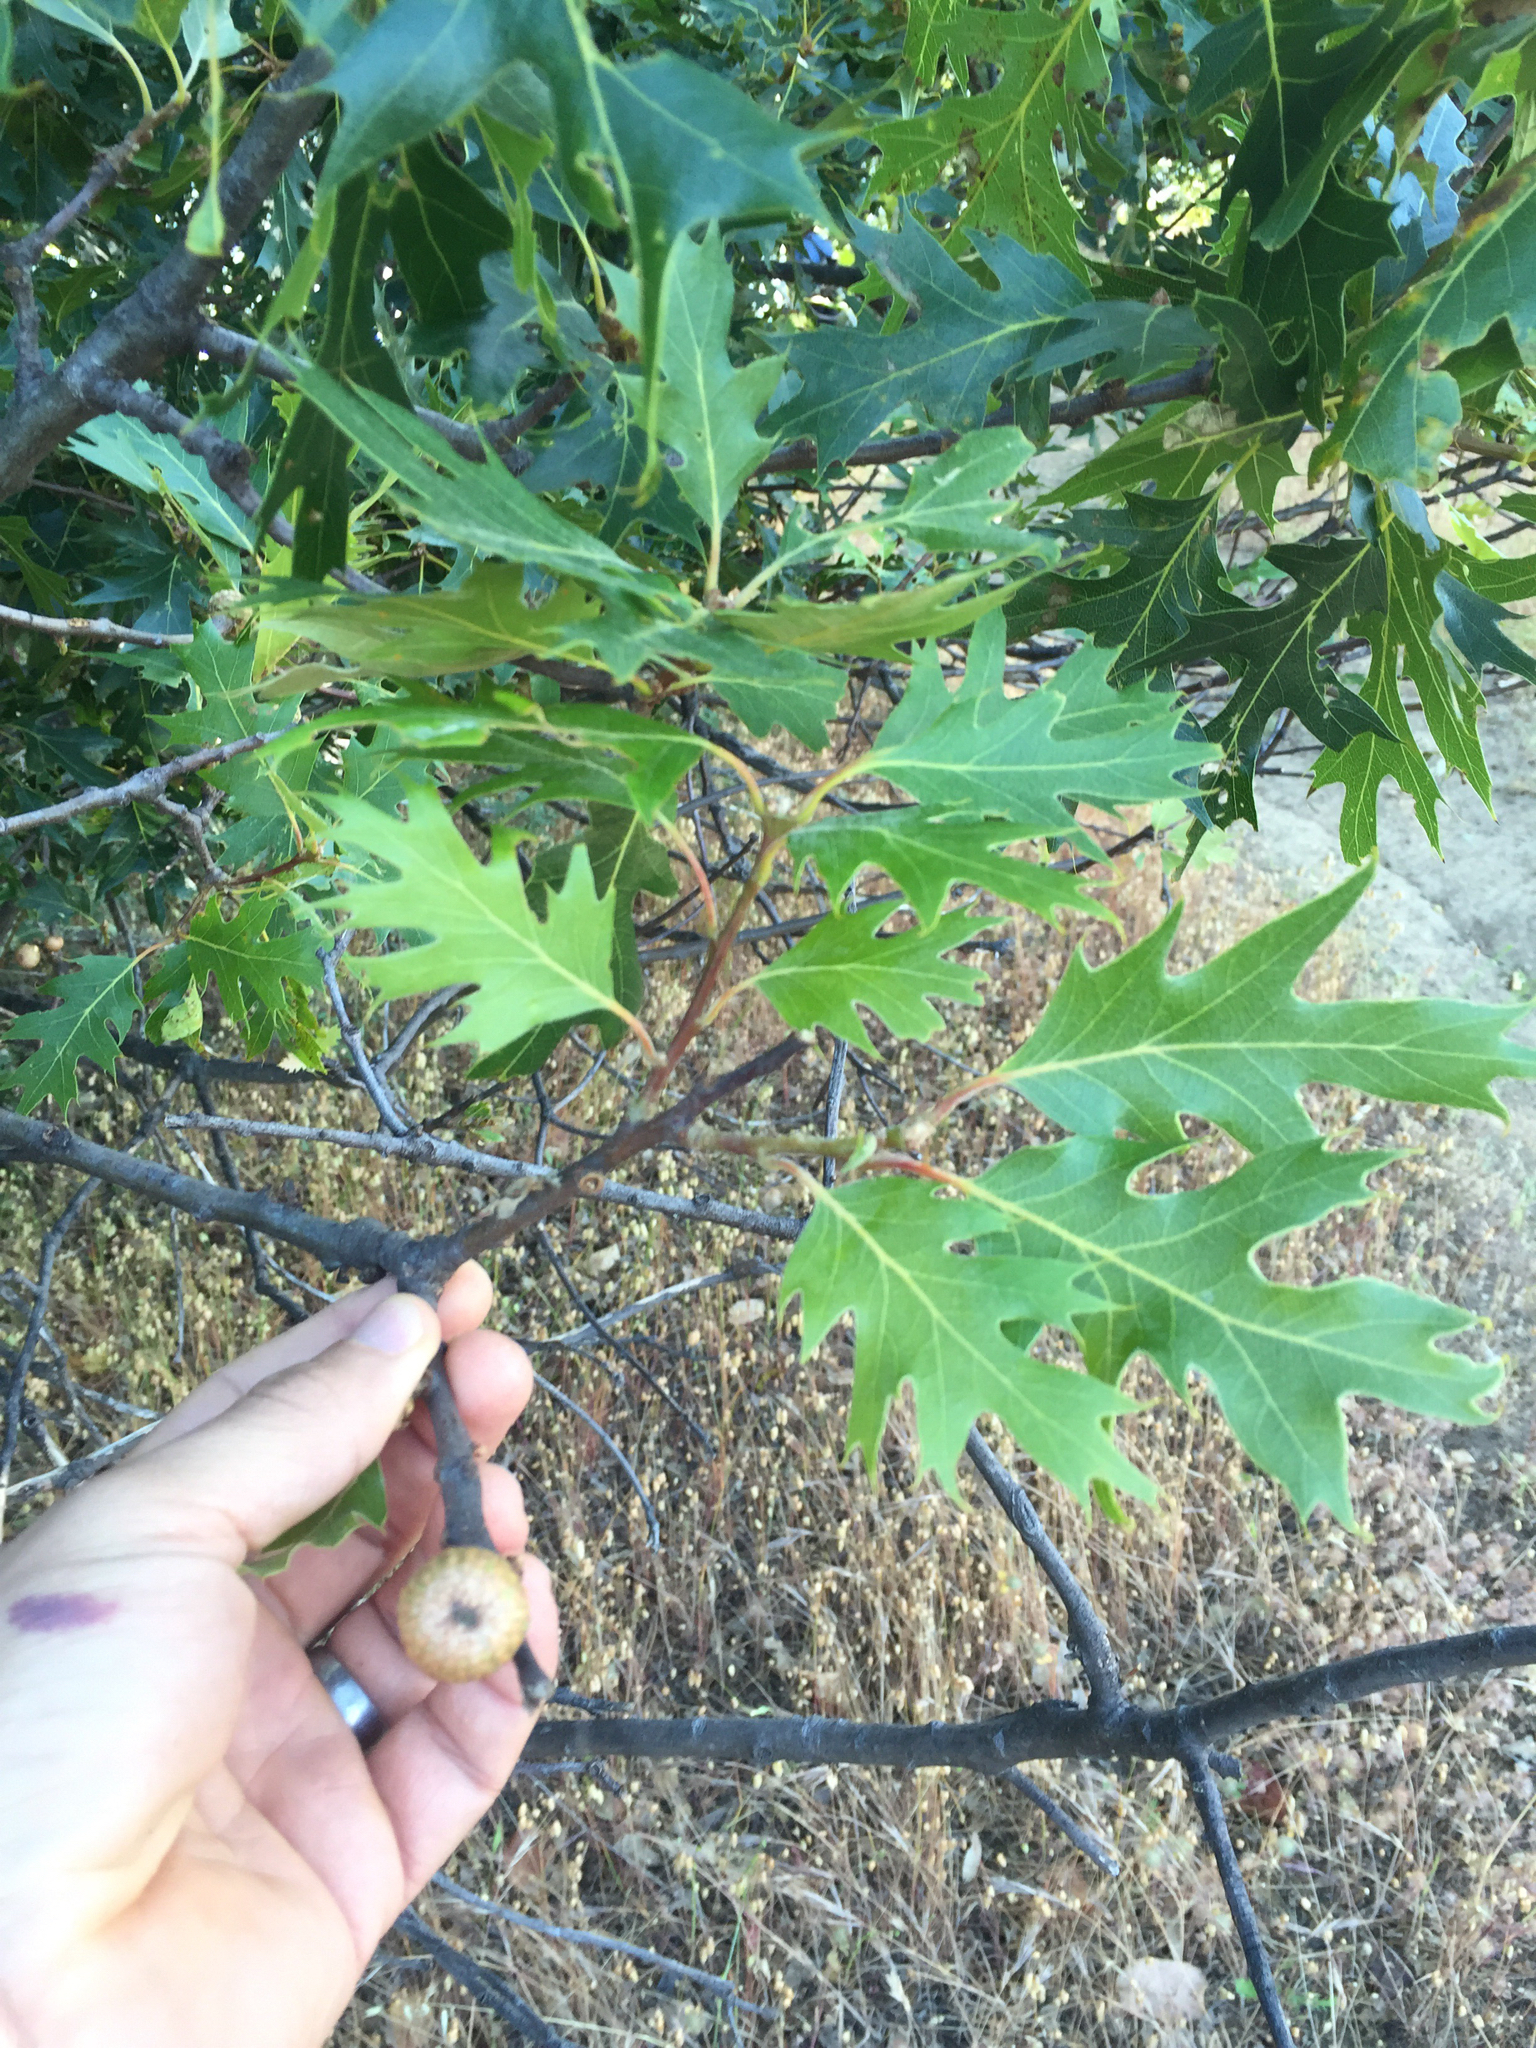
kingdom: Plantae
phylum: Tracheophyta
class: Magnoliopsida
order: Fagales
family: Fagaceae
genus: Quercus
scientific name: Quercus kelloggii
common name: California black oak
